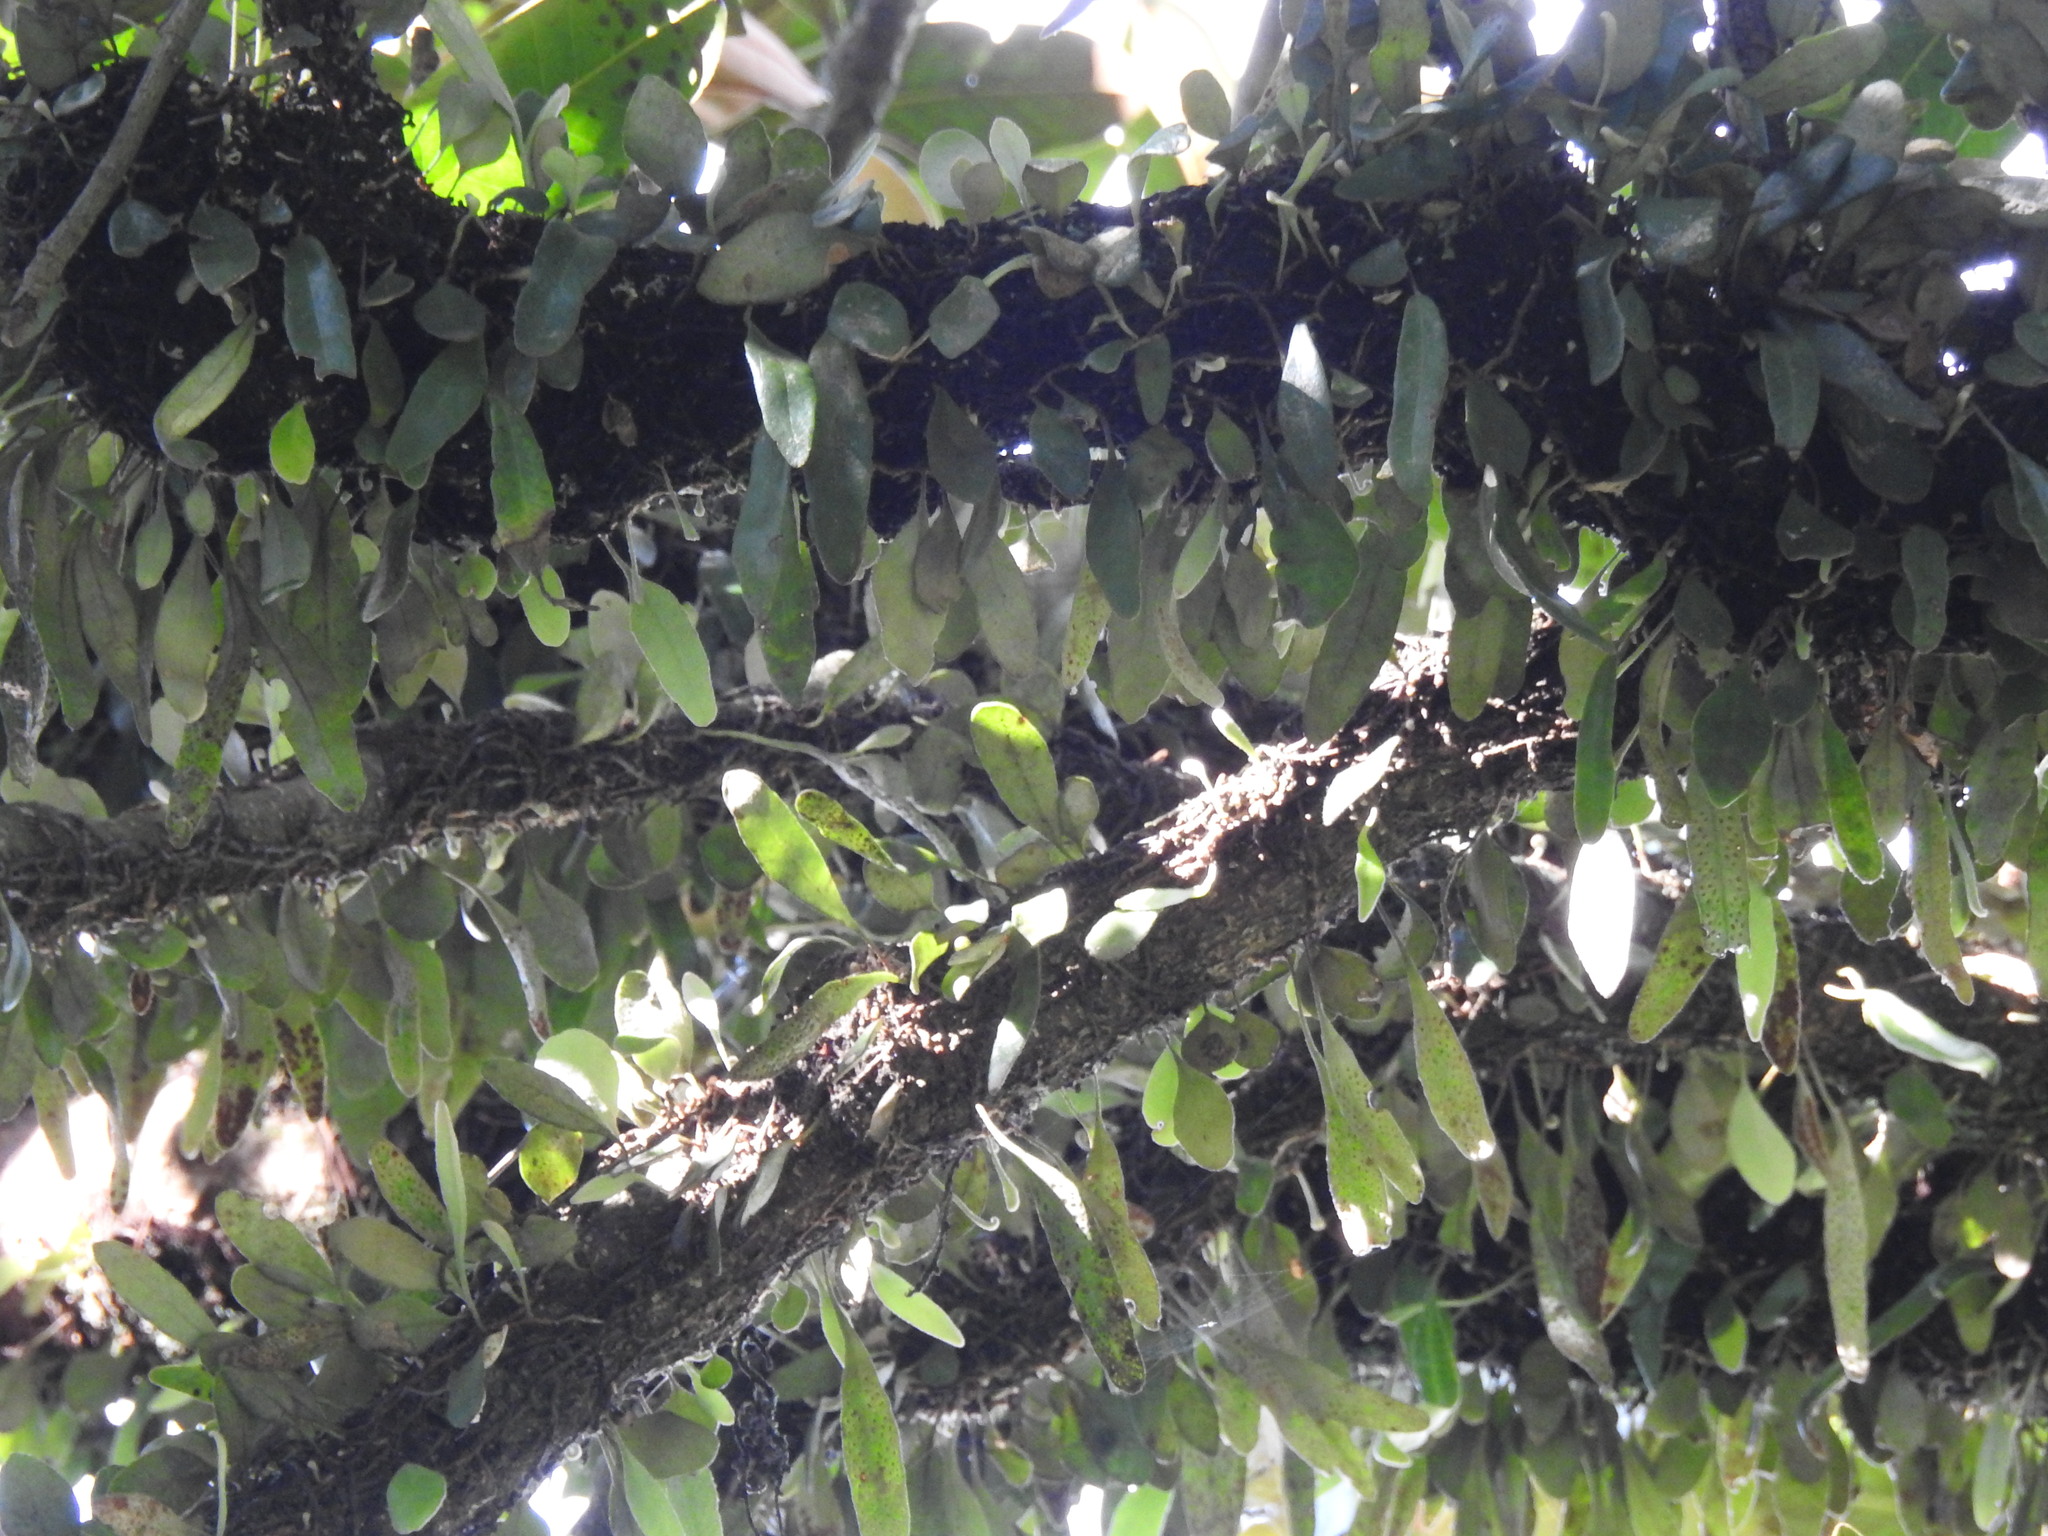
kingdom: Plantae
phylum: Tracheophyta
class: Polypodiopsida
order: Polypodiales
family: Polypodiaceae
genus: Pyrrosia
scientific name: Pyrrosia eleagnifolia
